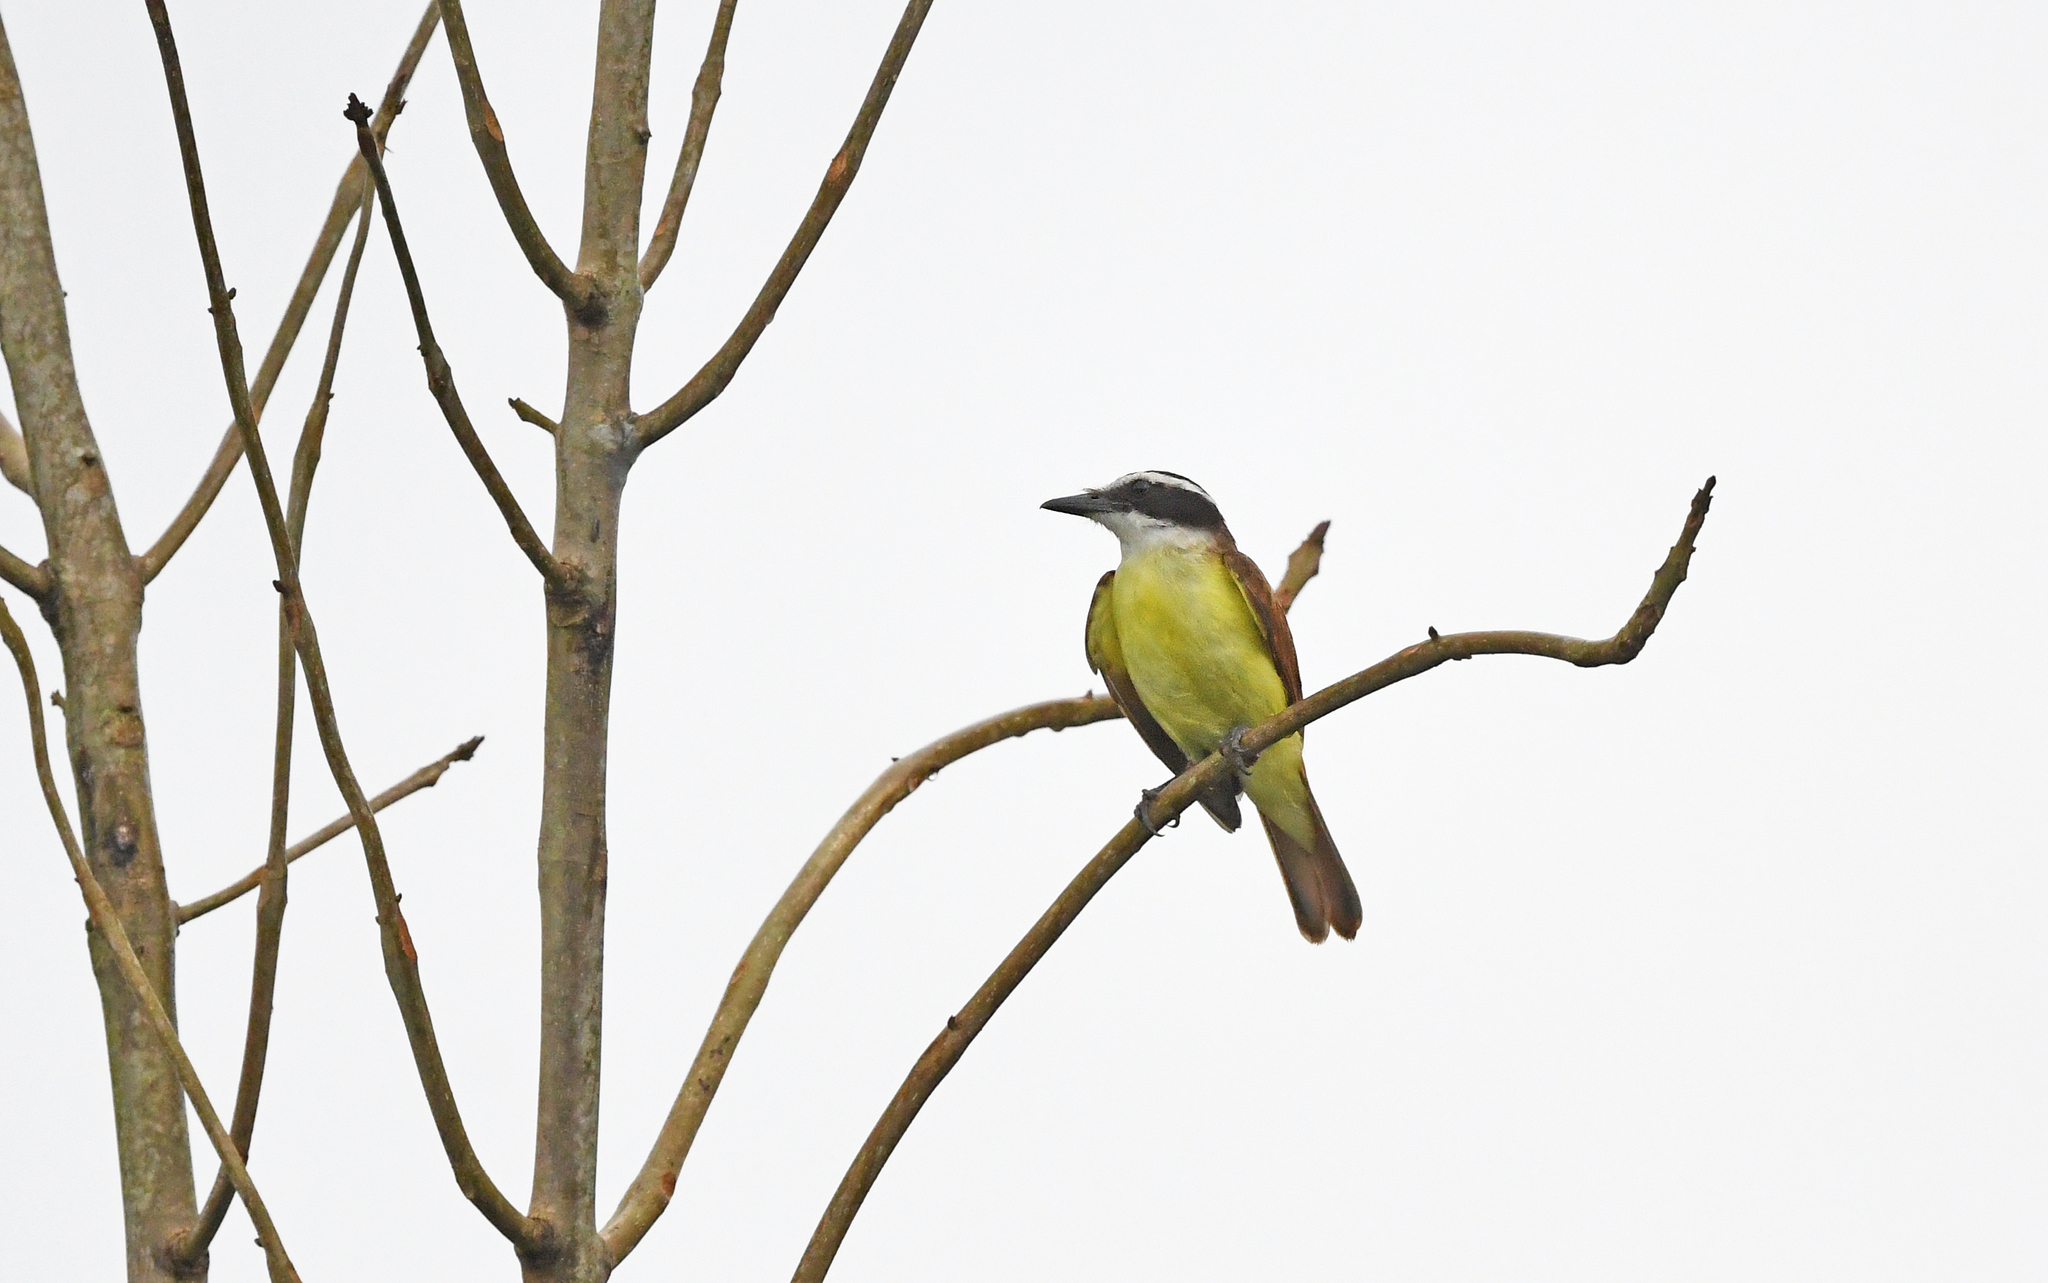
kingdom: Animalia
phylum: Chordata
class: Aves
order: Passeriformes
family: Tyrannidae
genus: Pitangus
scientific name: Pitangus sulphuratus
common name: Great kiskadee
